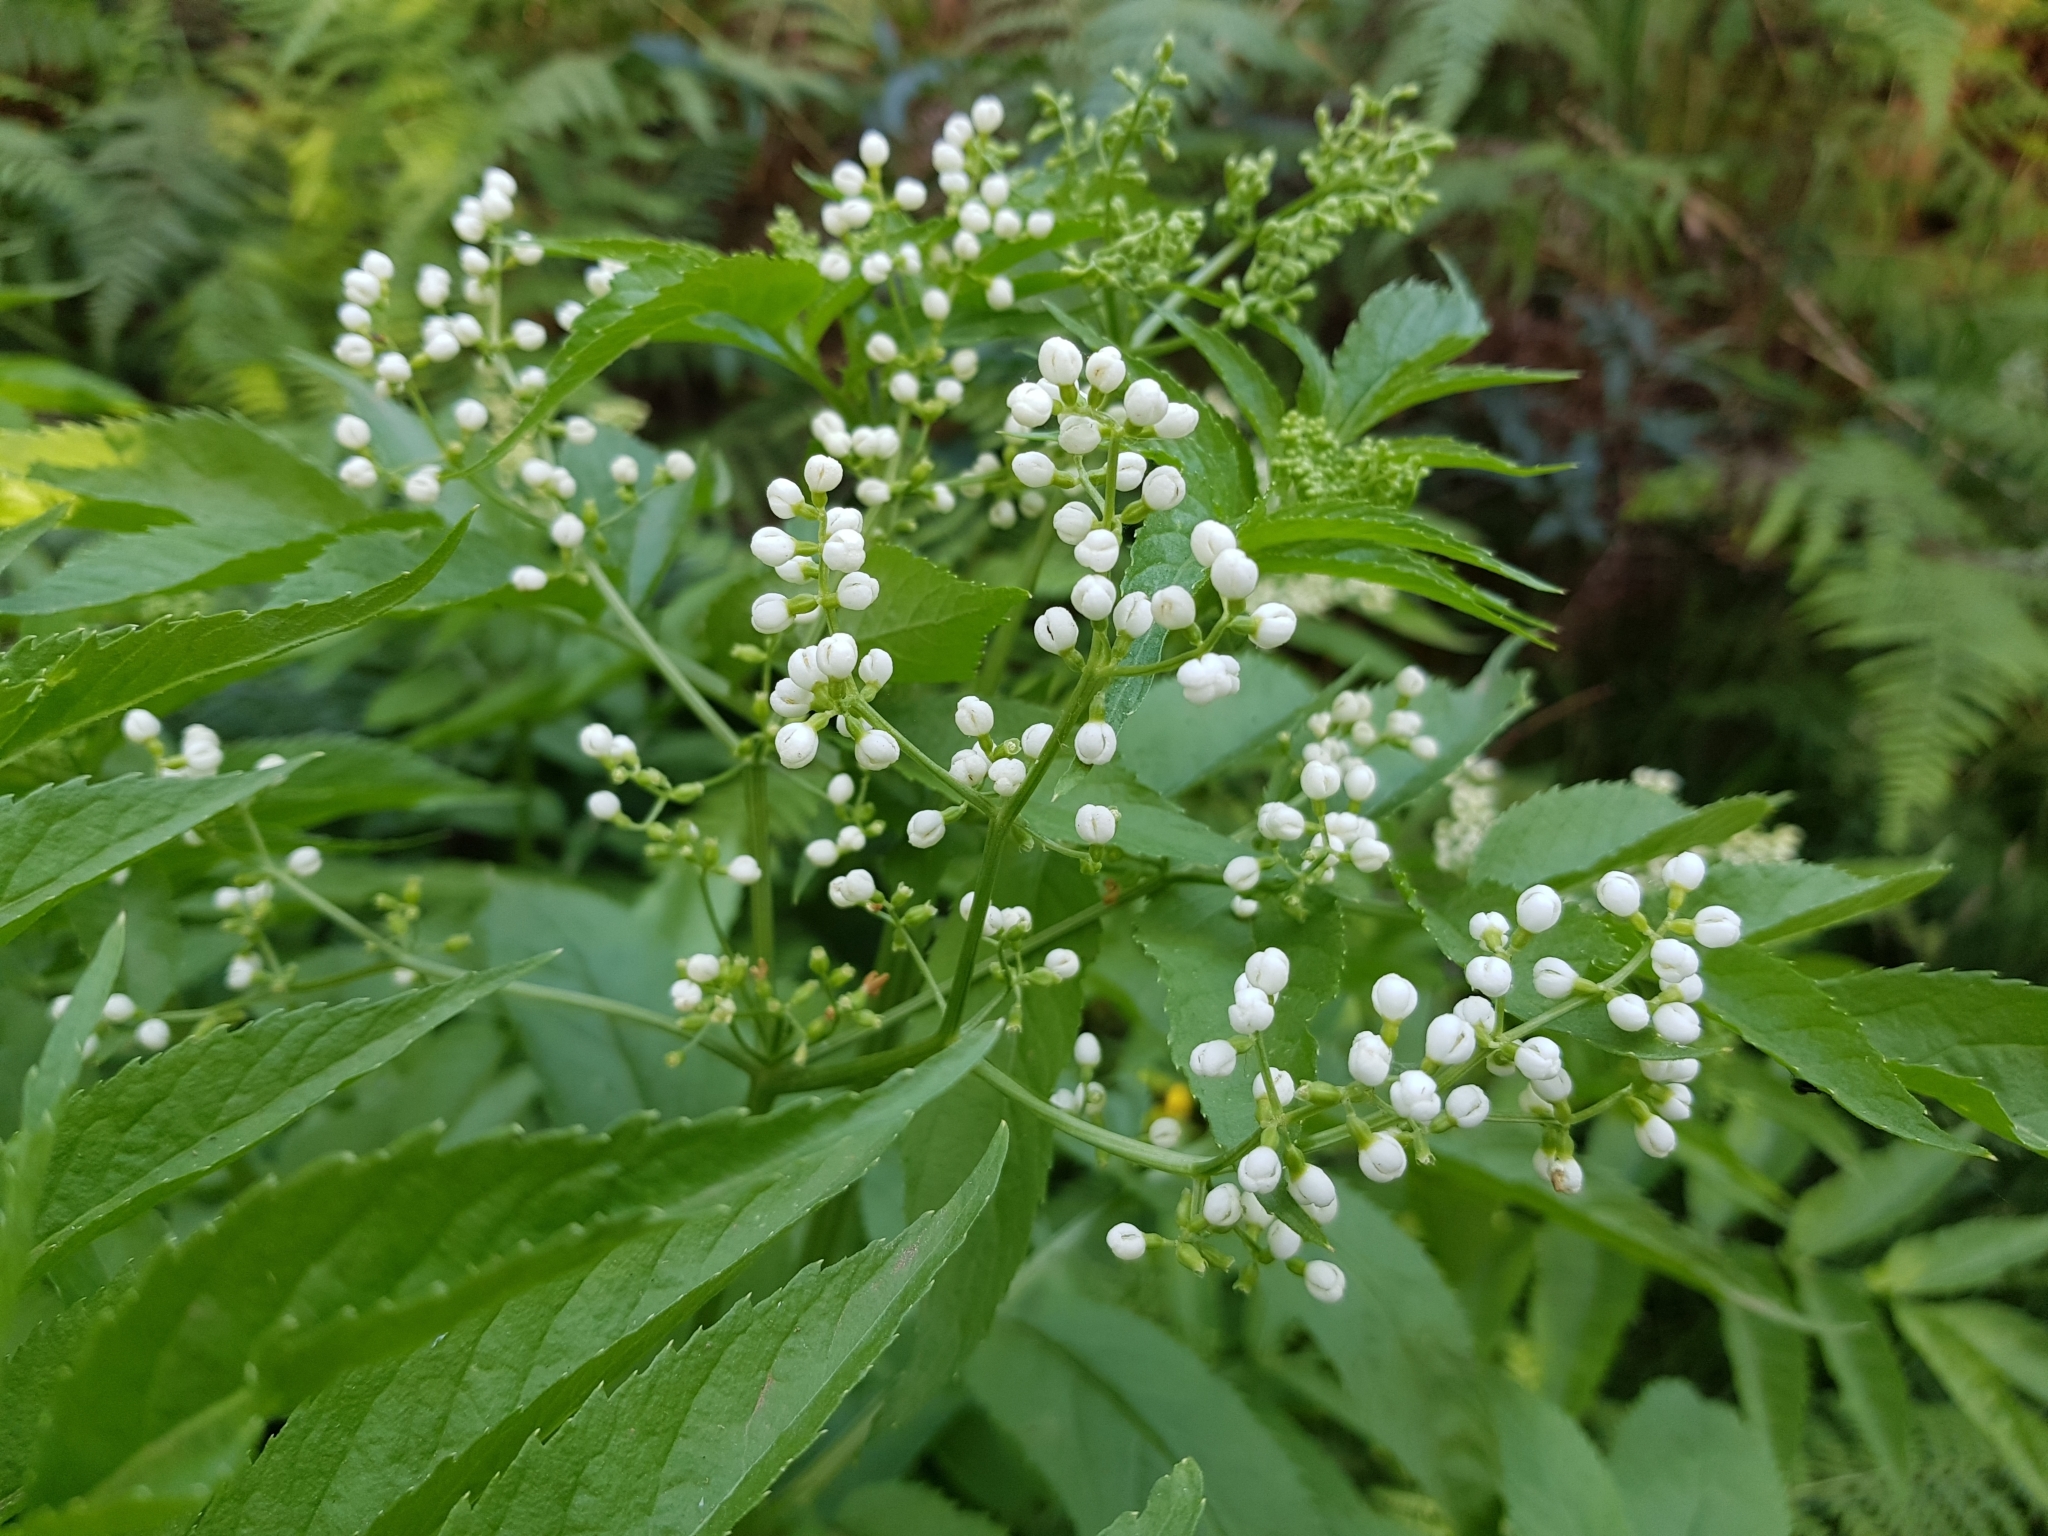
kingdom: Plantae
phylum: Tracheophyta
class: Magnoliopsida
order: Dipsacales
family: Viburnaceae
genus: Sambucus
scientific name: Sambucus gaudichaudiana
